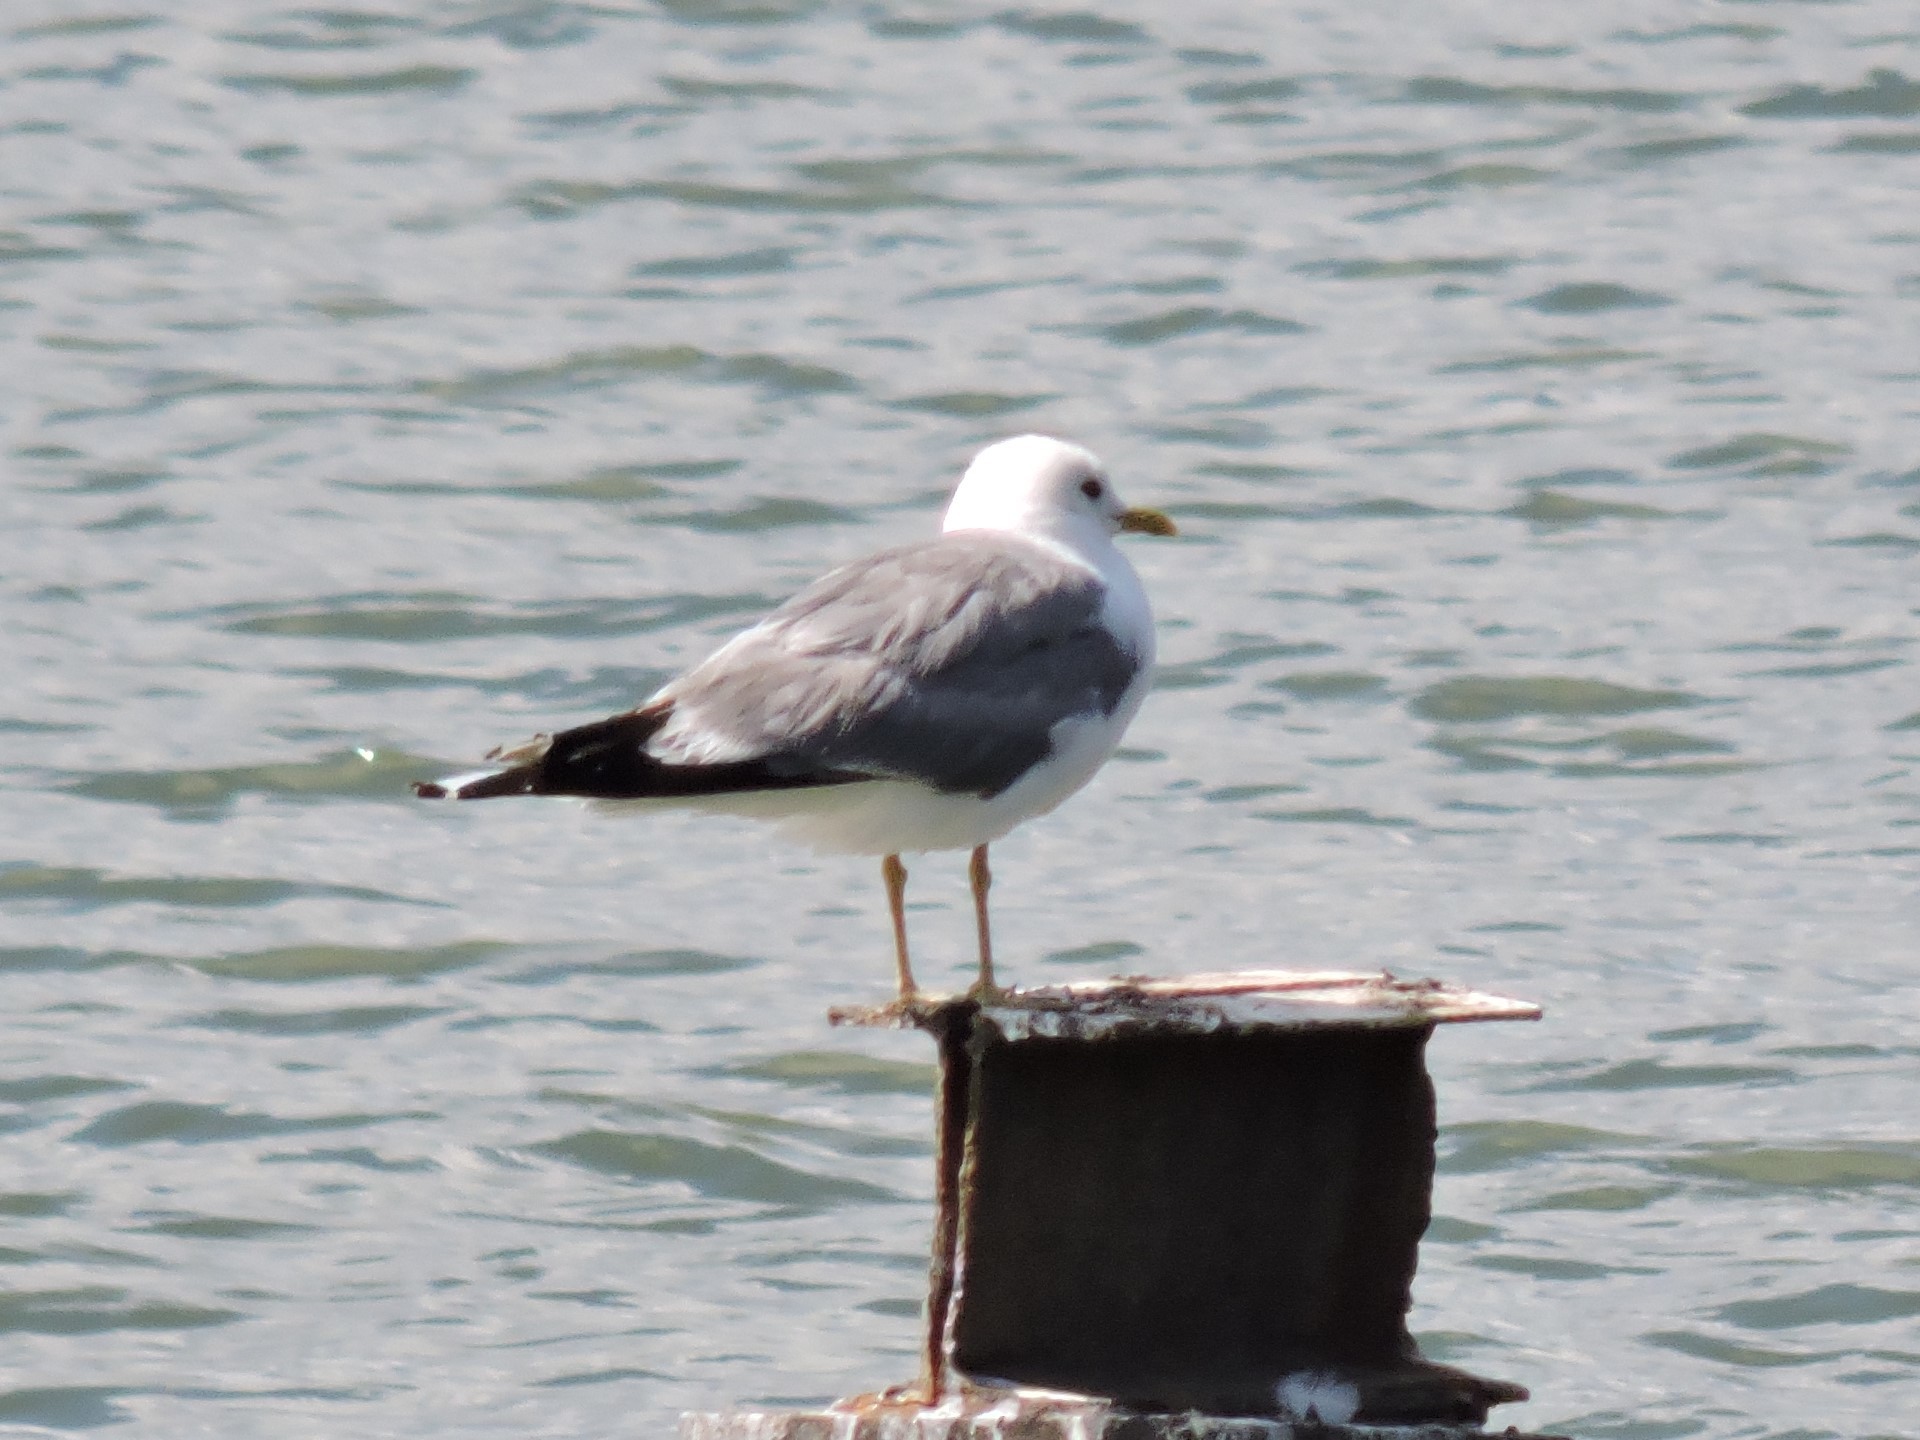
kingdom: Animalia
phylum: Chordata
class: Aves
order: Charadriiformes
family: Laridae
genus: Larus
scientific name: Larus canus
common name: Mew gull
